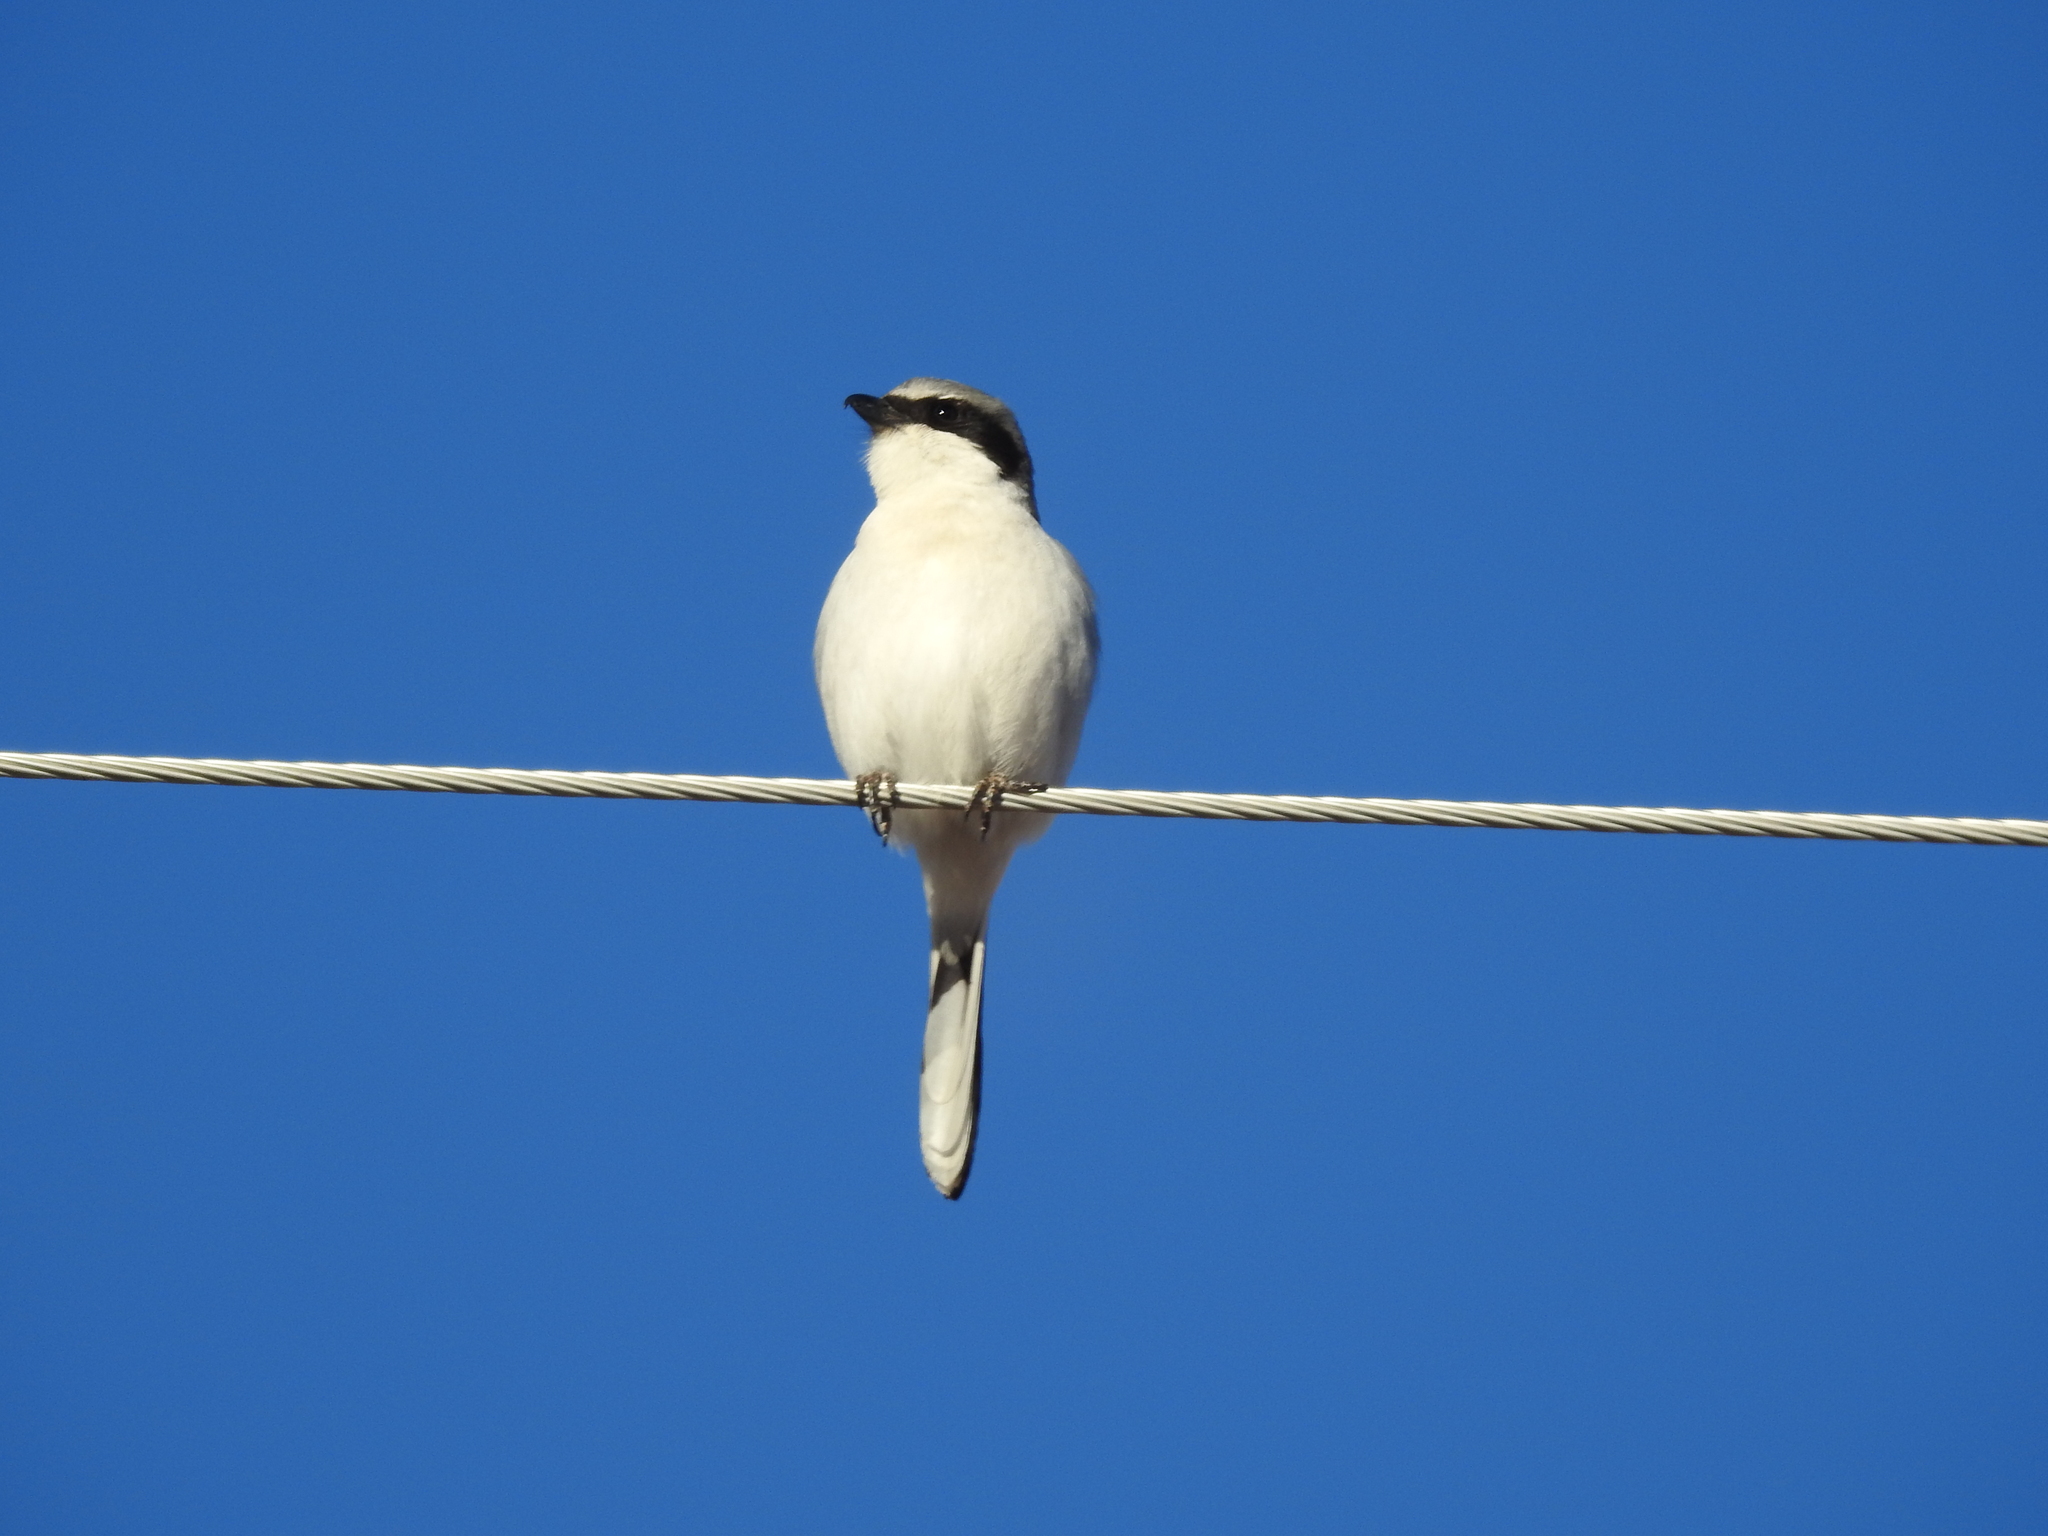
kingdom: Animalia
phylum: Chordata
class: Aves
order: Passeriformes
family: Laniidae
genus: Lanius
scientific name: Lanius ludovicianus
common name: Loggerhead shrike
